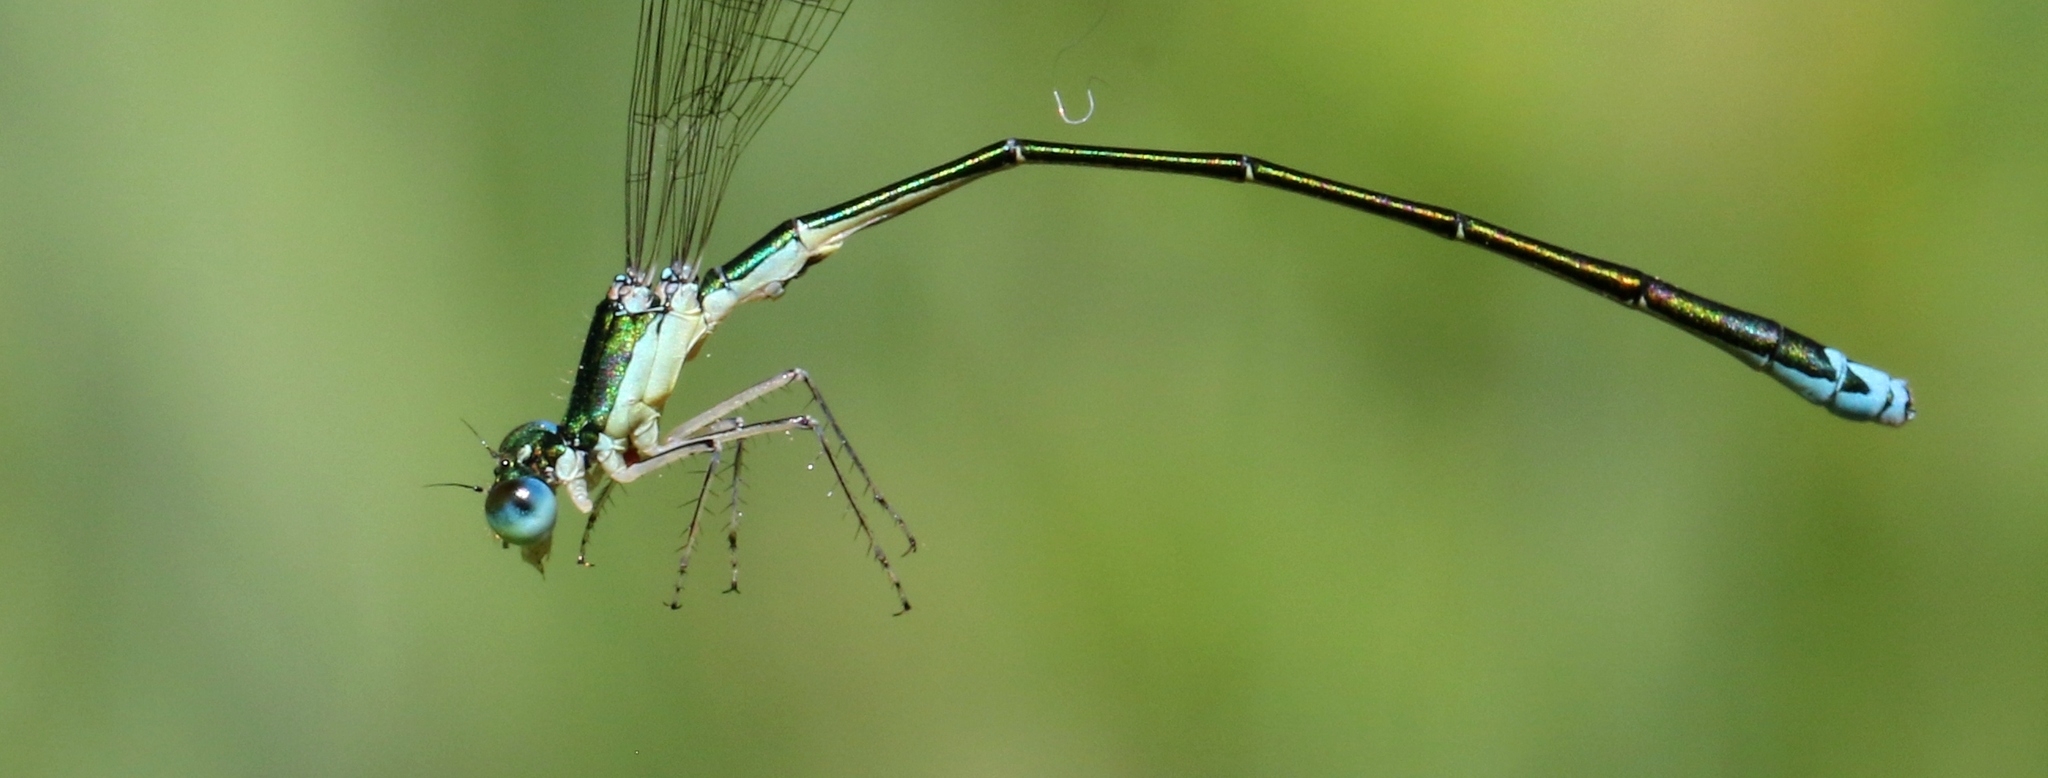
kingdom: Animalia
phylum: Arthropoda
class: Insecta
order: Odonata
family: Coenagrionidae
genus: Nehalennia
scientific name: Nehalennia irene
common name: Sedge sprite
